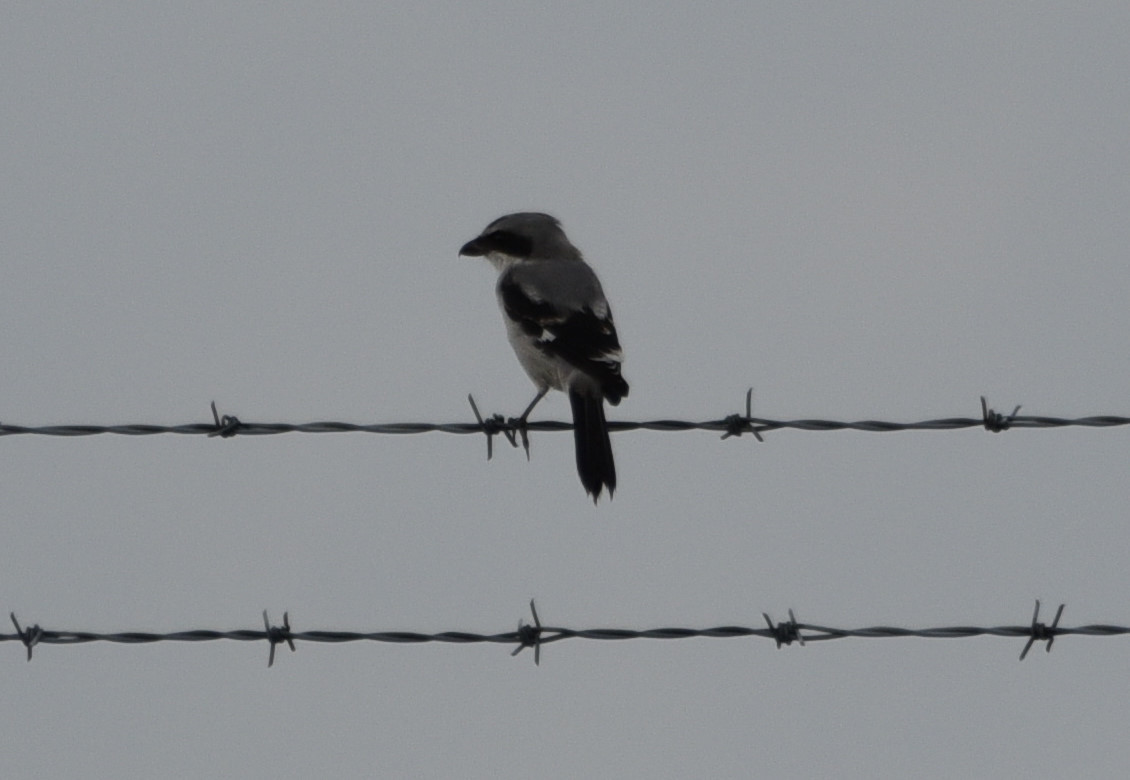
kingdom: Animalia
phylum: Chordata
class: Aves
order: Passeriformes
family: Laniidae
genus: Lanius
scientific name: Lanius ludovicianus
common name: Loggerhead shrike
